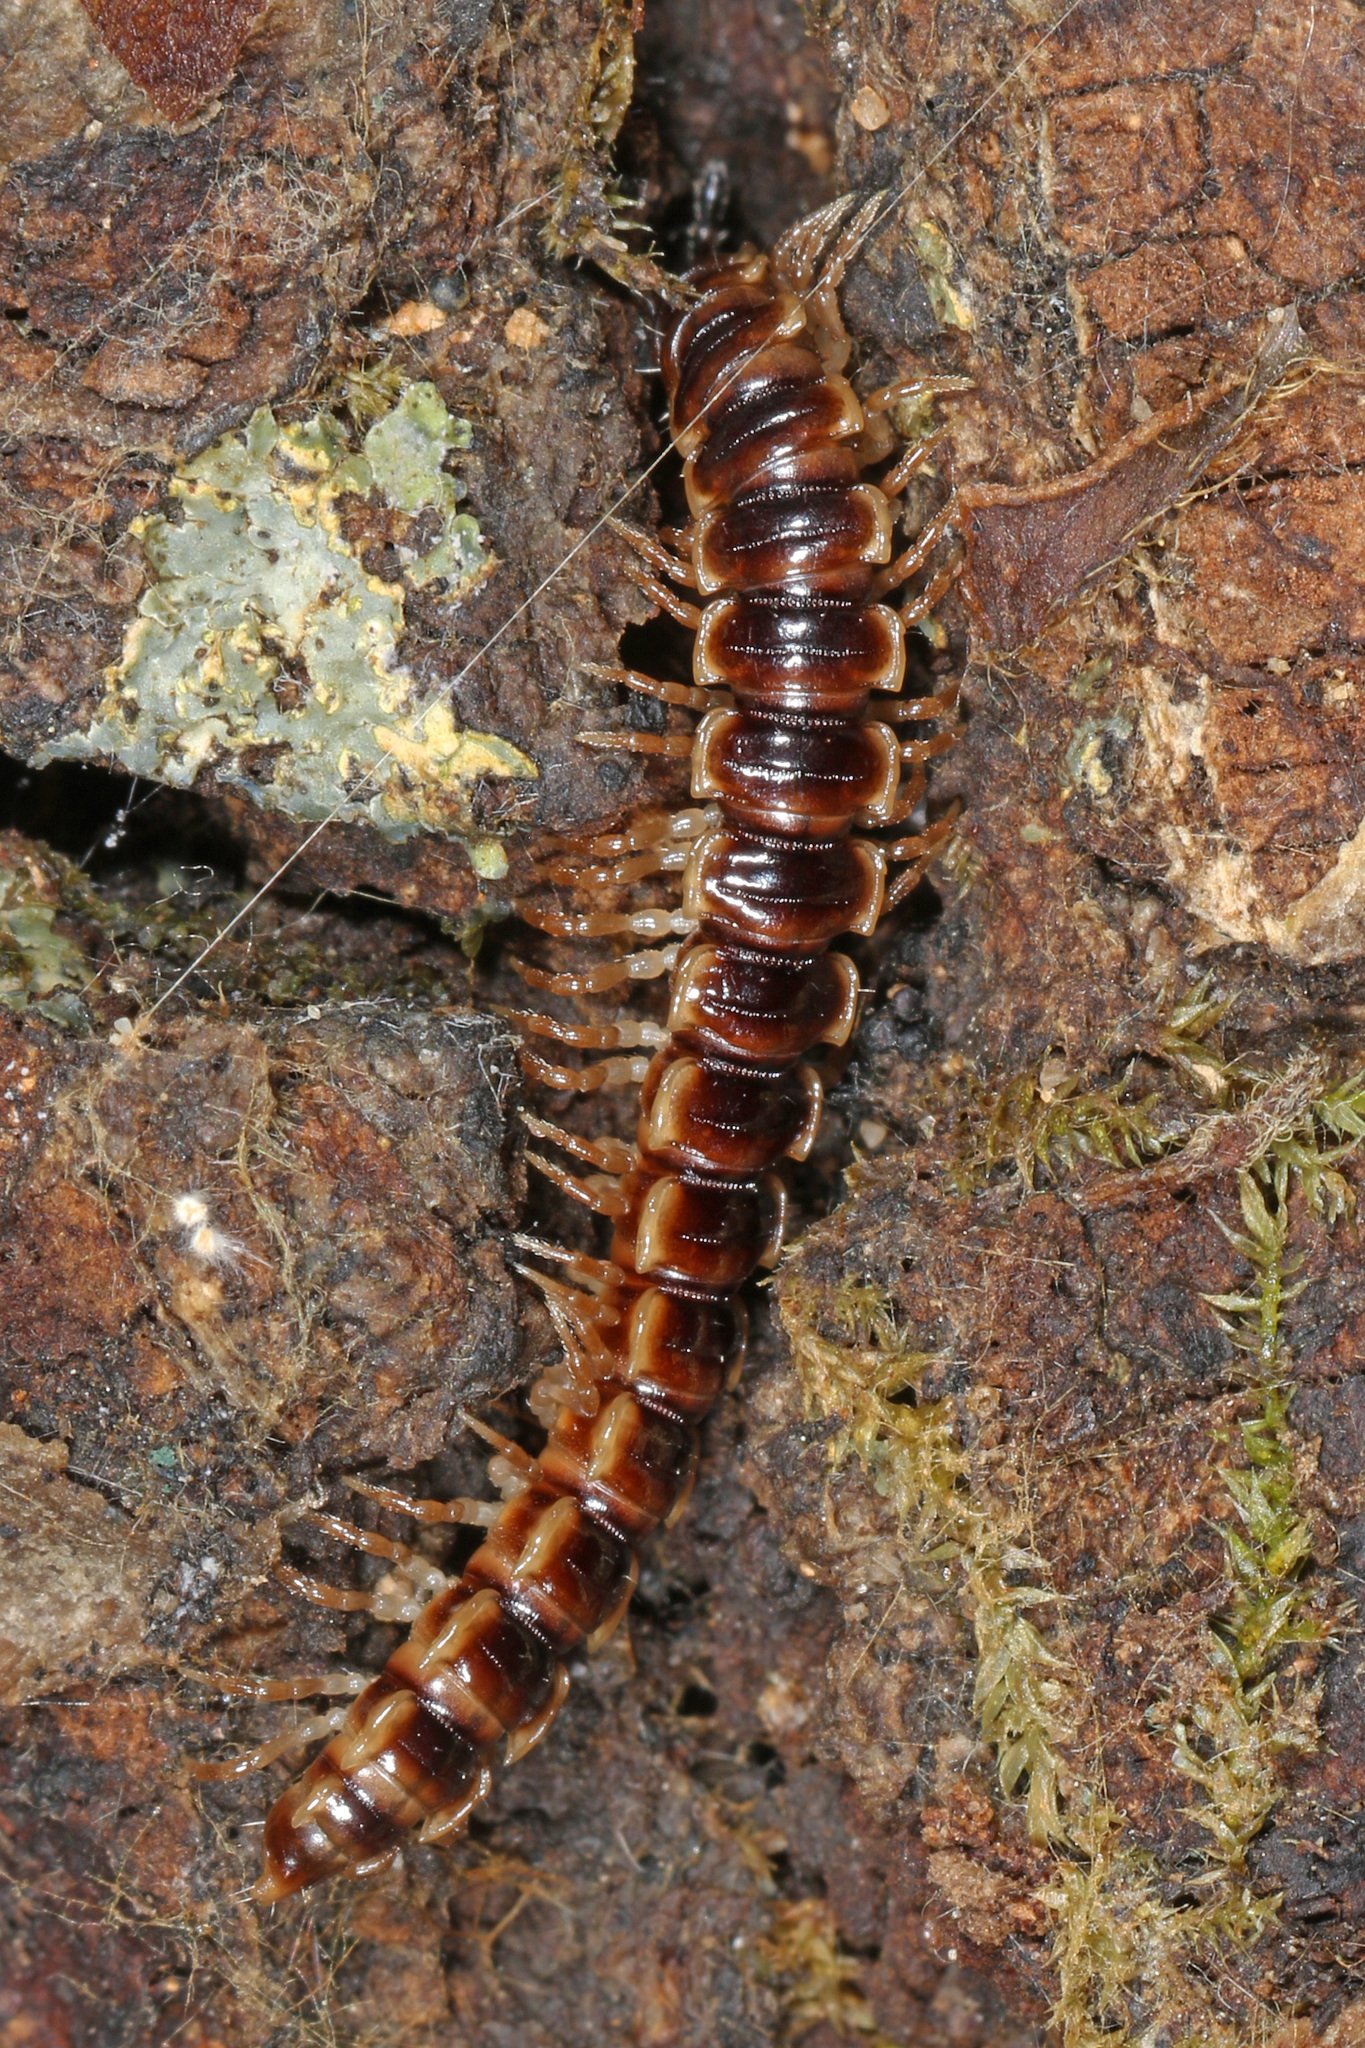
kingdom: Animalia
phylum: Arthropoda
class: Diplopoda
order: Polydesmida
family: Paradoxosomatidae
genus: Oxidus
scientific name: Oxidus gracilis
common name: Greenhouse millipede
